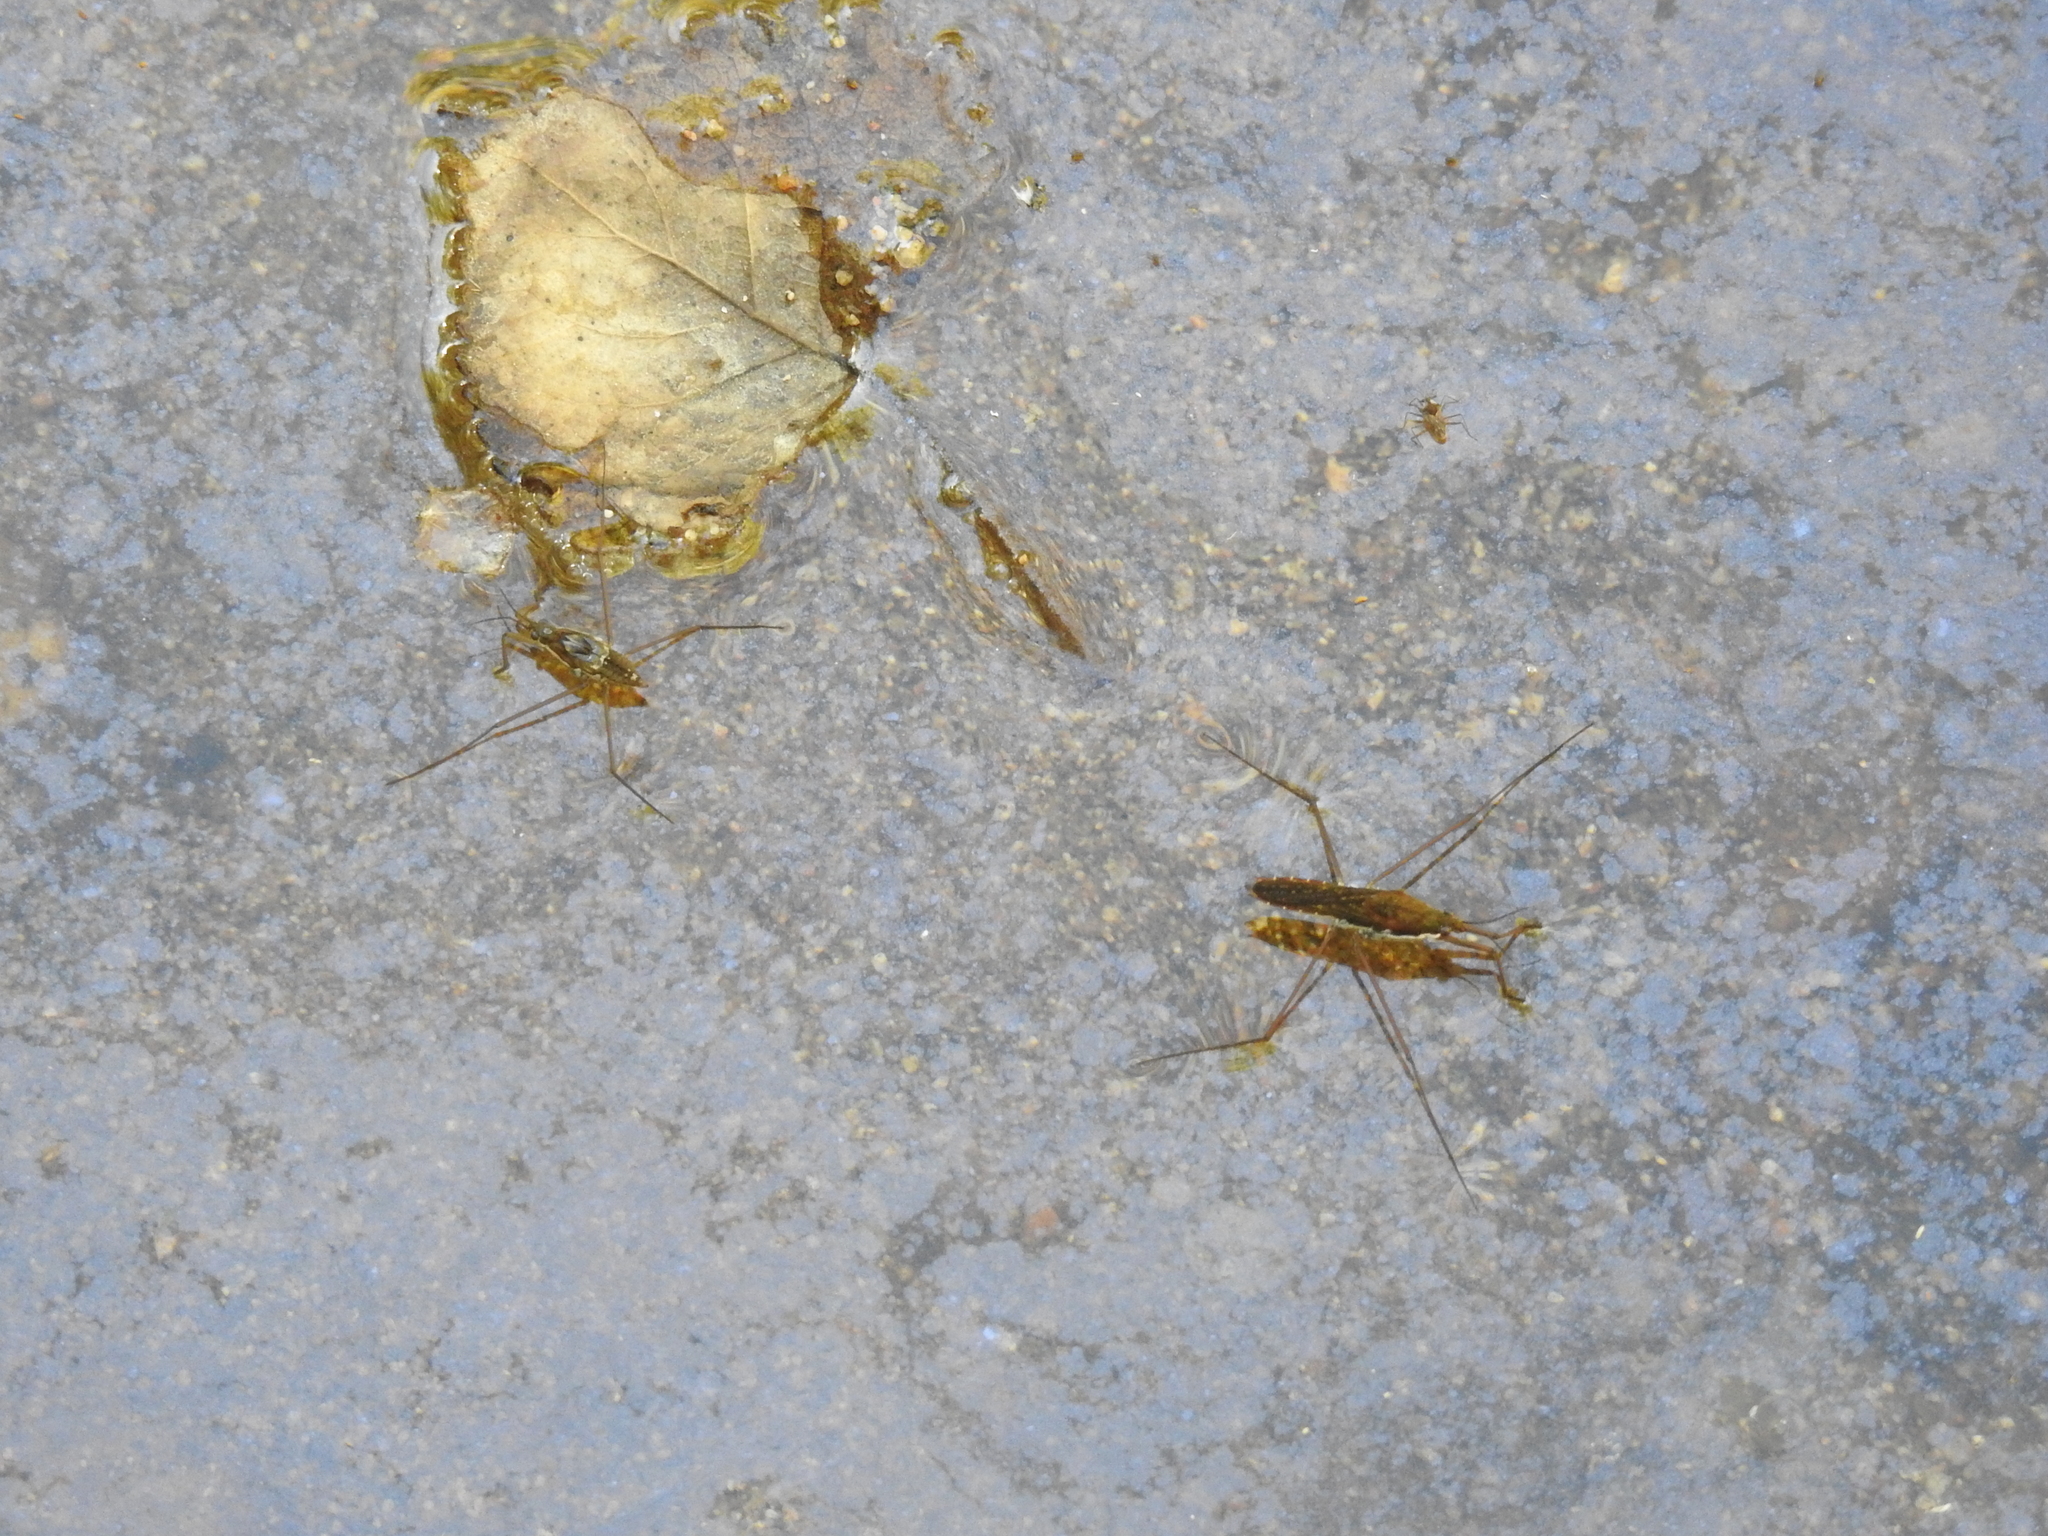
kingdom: Animalia
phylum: Arthropoda
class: Insecta
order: Hemiptera
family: Gerridae
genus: Aquarius
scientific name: Aquarius remigis
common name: Common water strider
